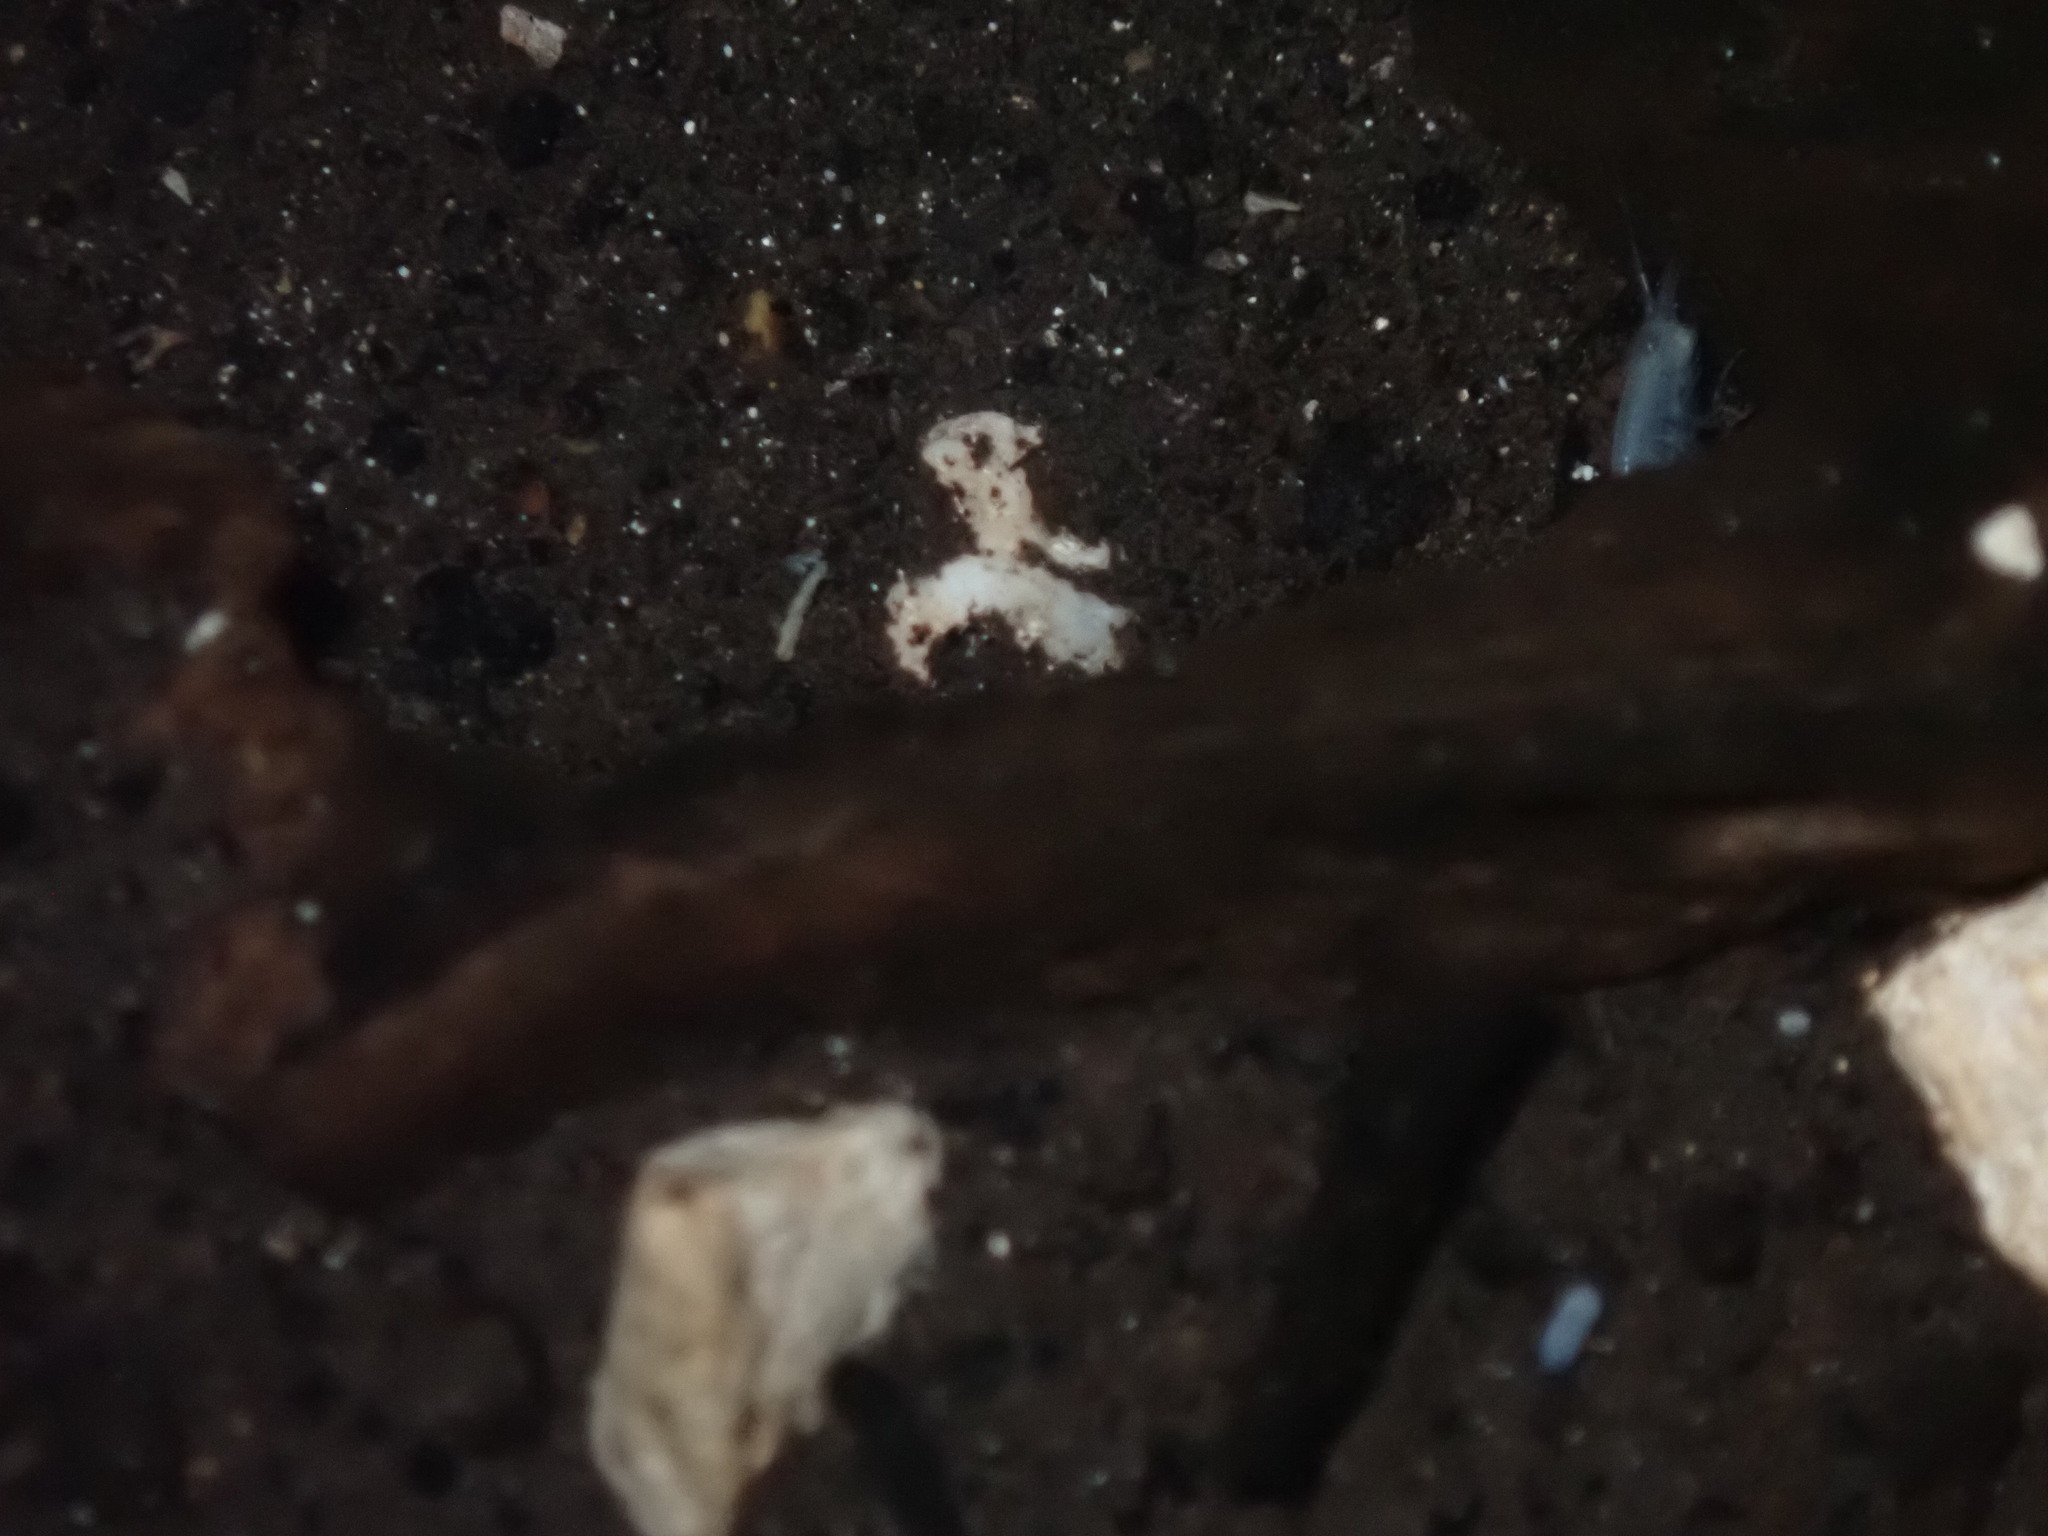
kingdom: Animalia
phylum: Arthropoda
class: Malacostraca
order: Amphipoda
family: Hadziidae
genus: Bahadzia
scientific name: Bahadzia caymanensis
